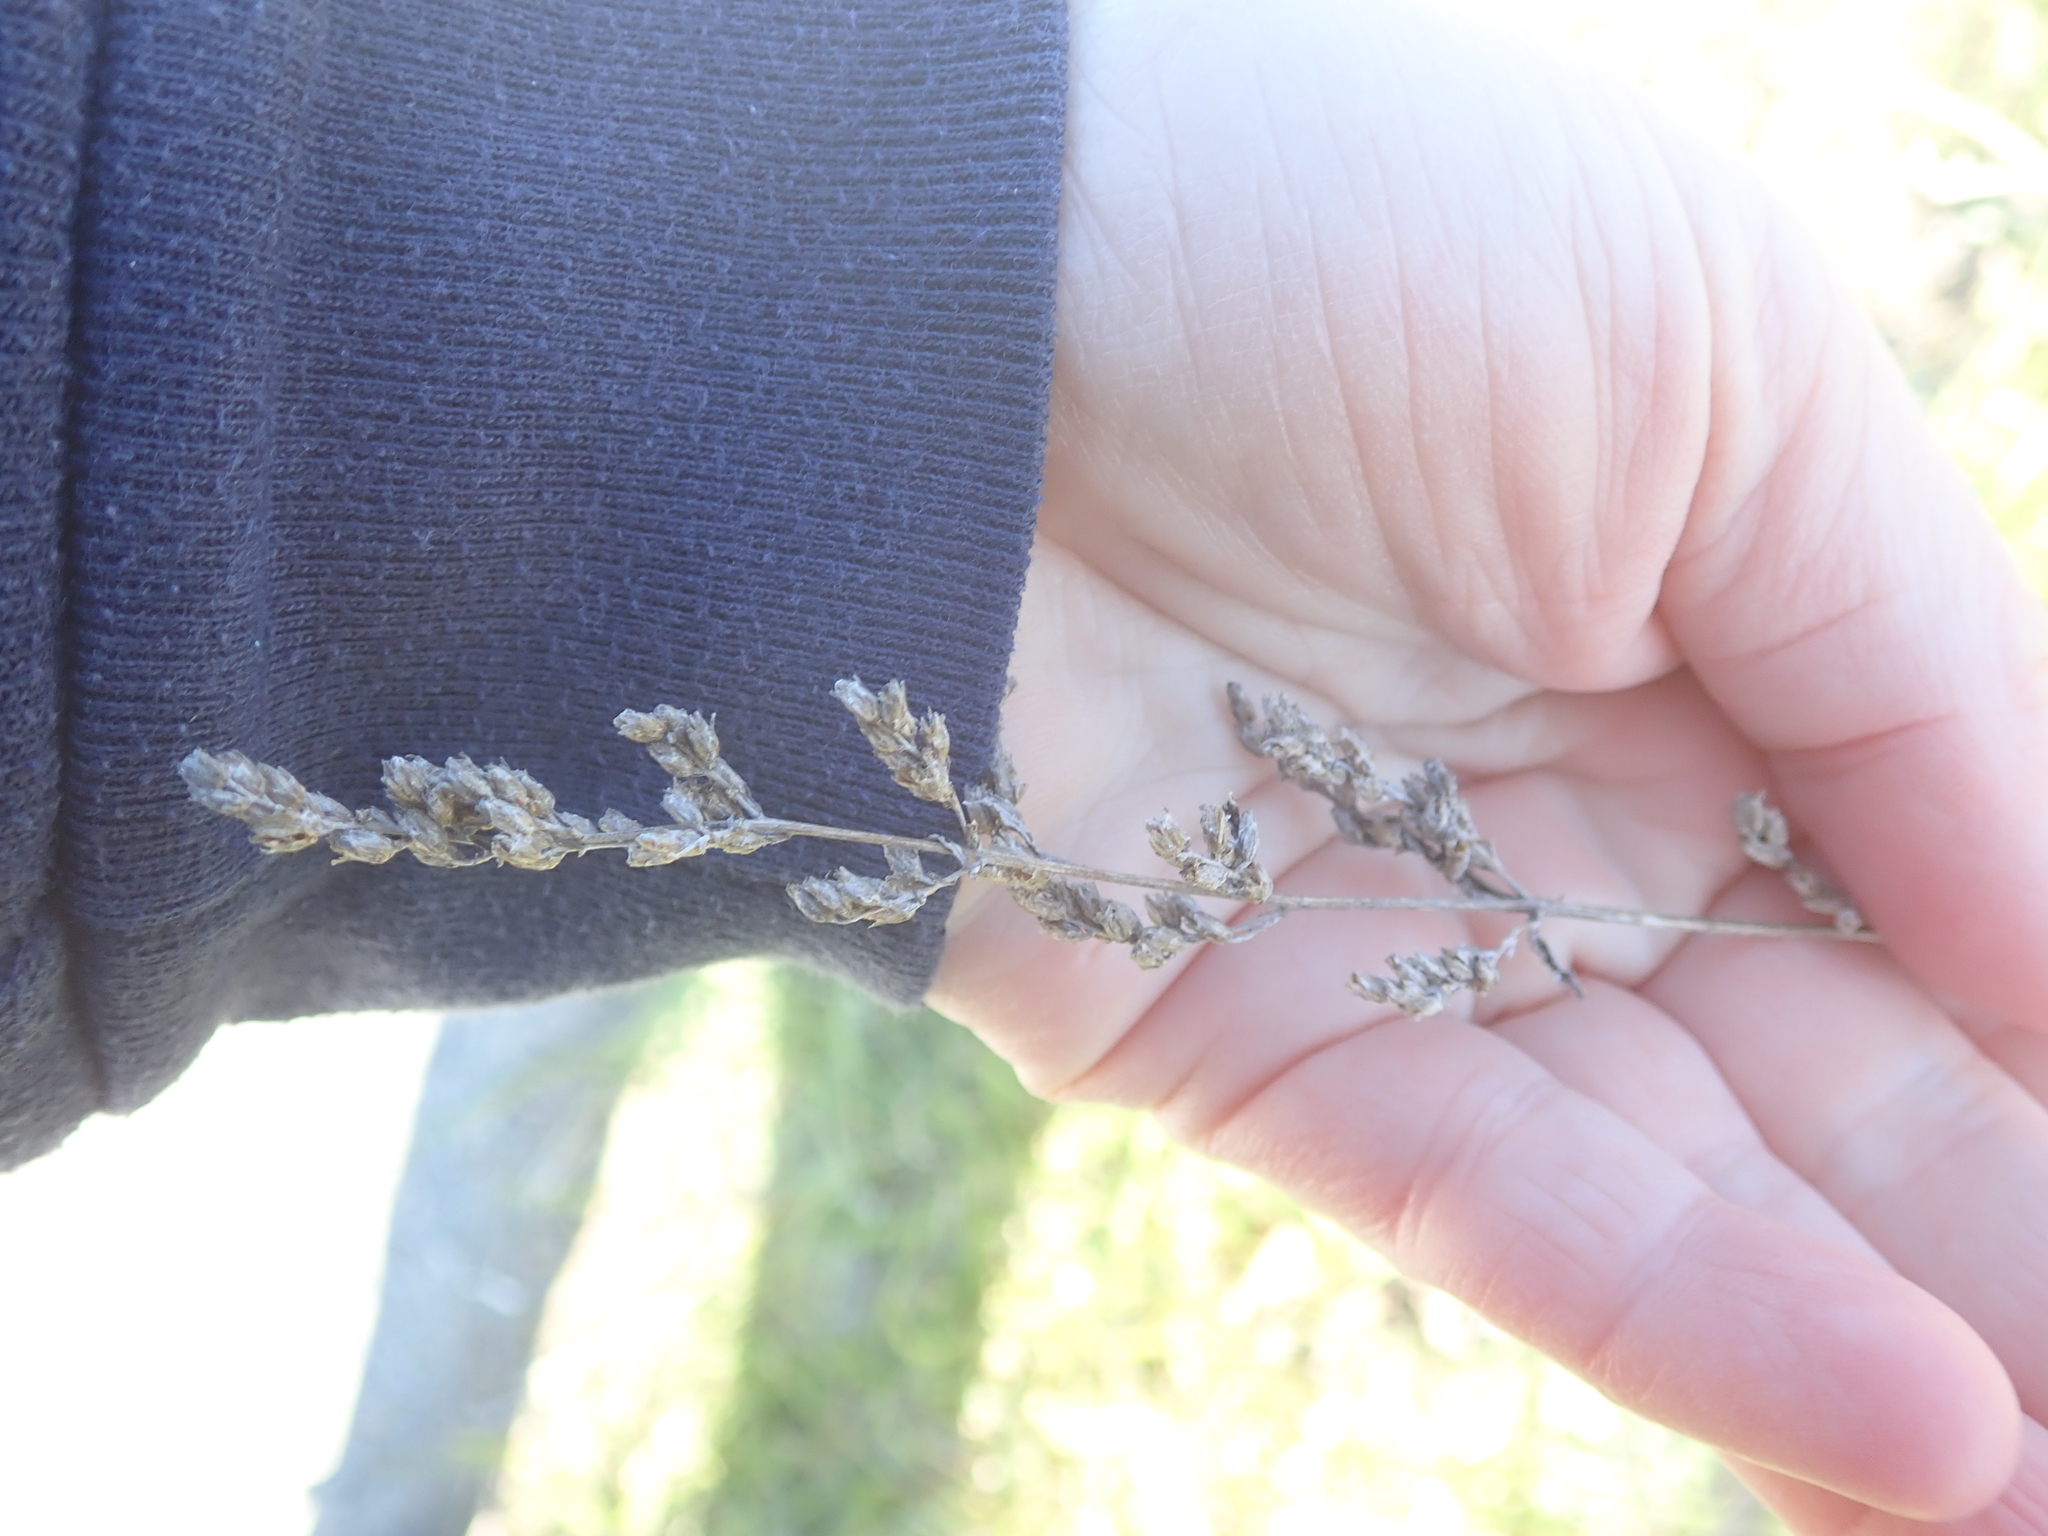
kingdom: Plantae
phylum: Tracheophyta
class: Magnoliopsida
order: Asterales
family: Asteraceae
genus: Artemisia
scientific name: Artemisia vulgaris
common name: Mugwort
